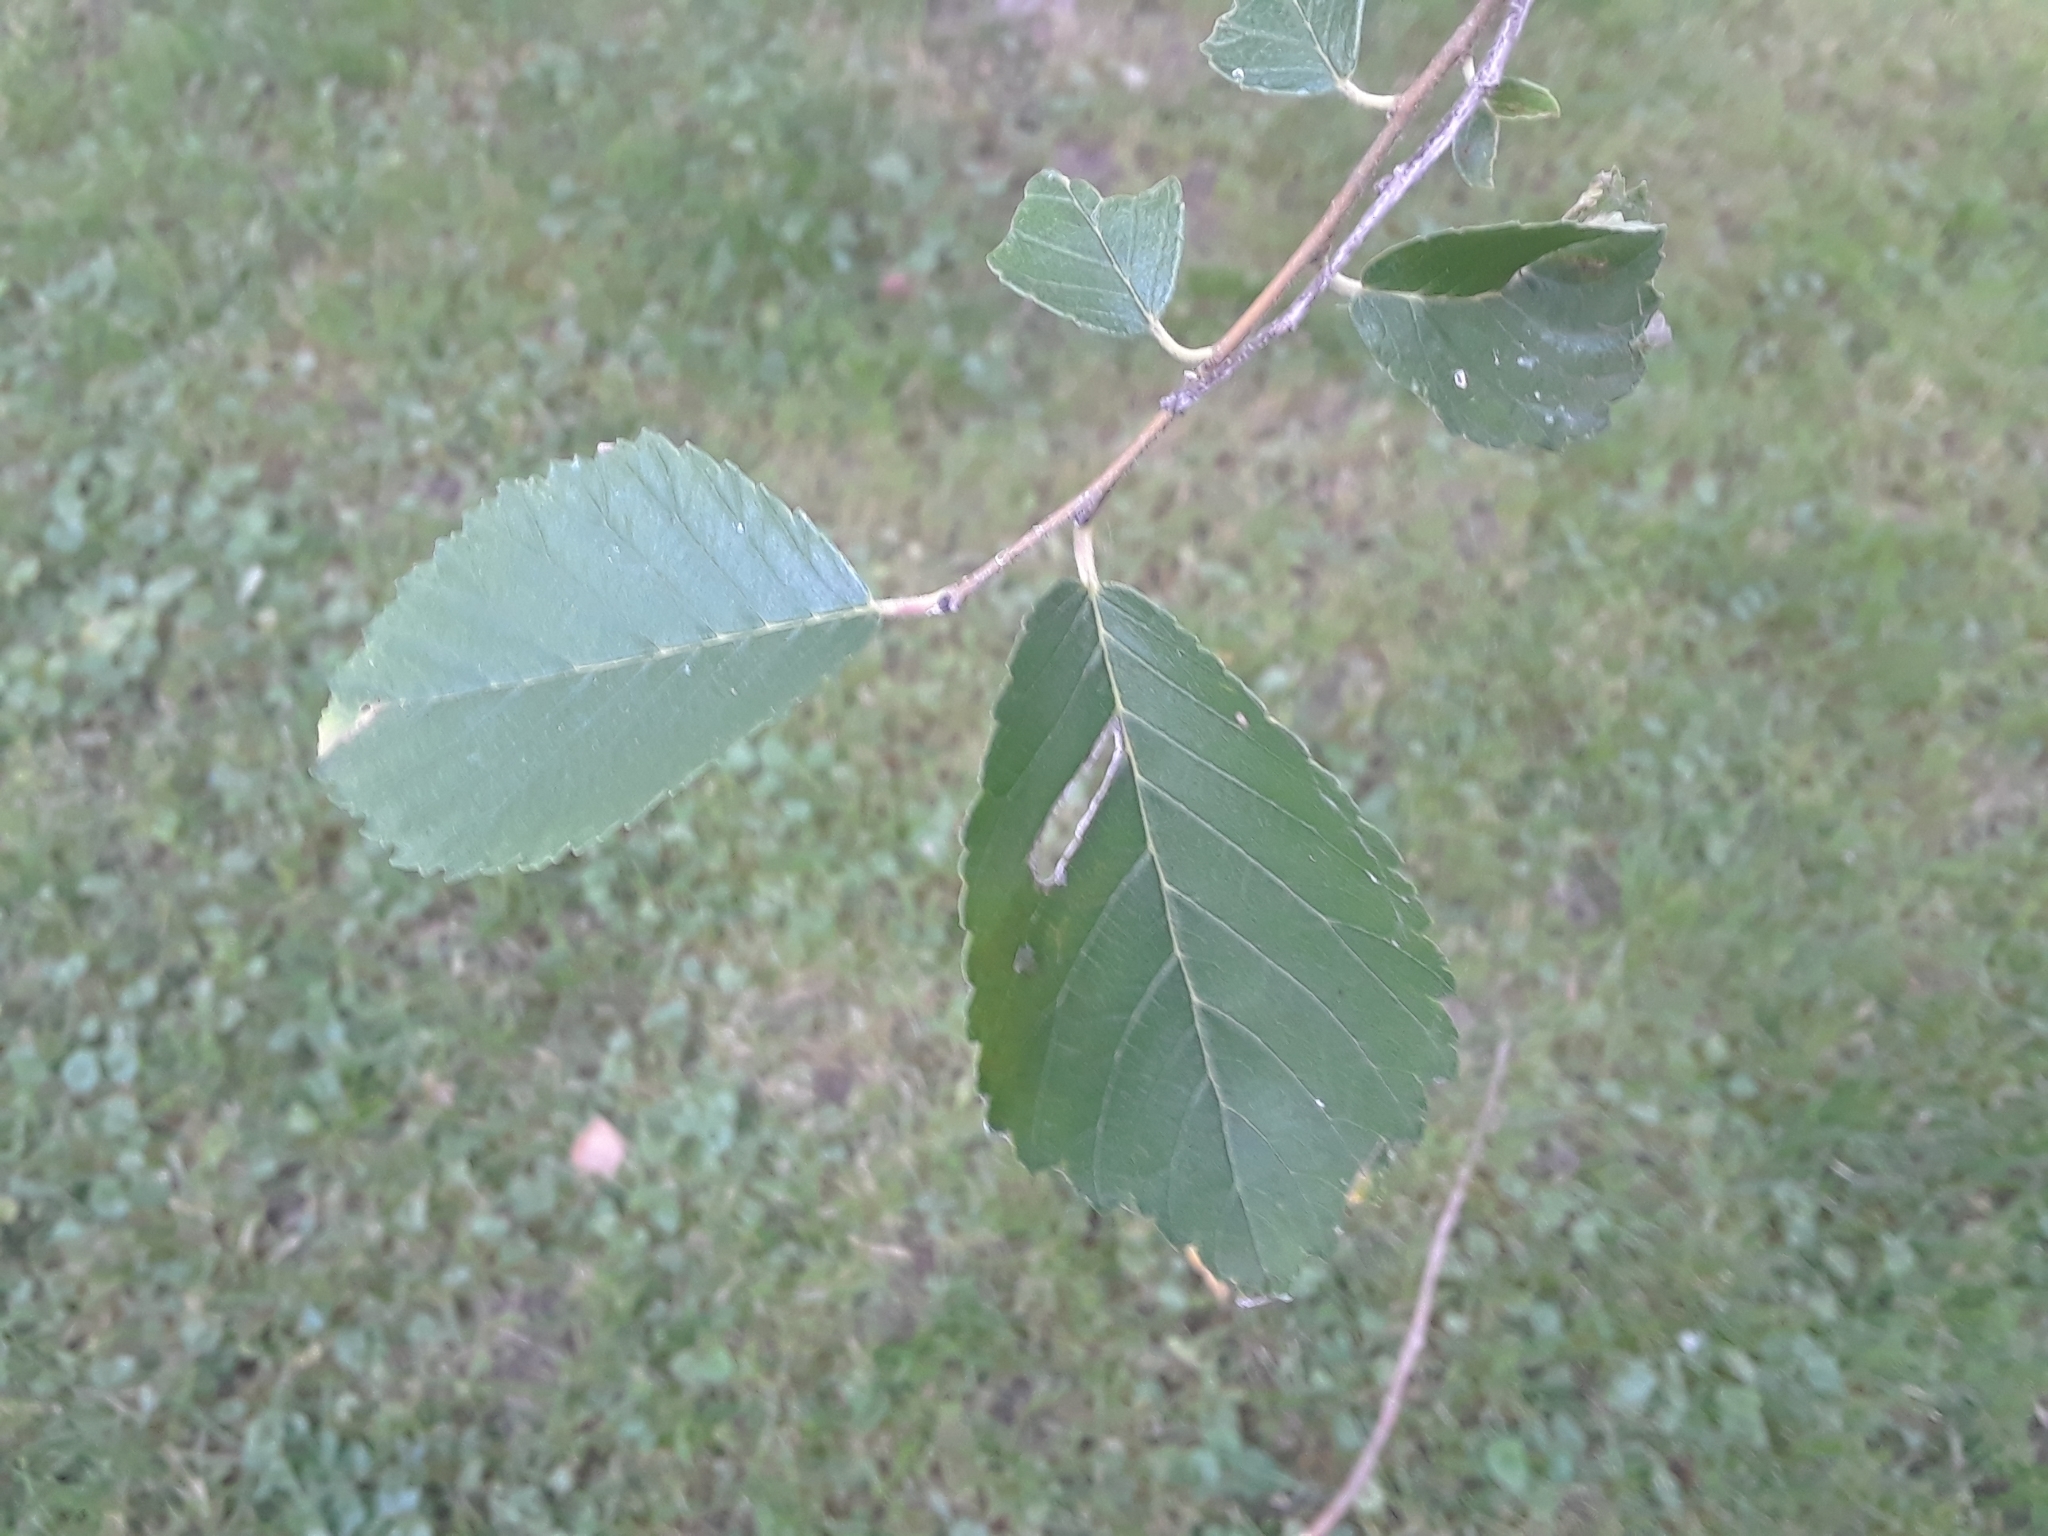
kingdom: Plantae
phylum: Tracheophyta
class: Magnoliopsida
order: Rosales
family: Ulmaceae
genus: Ulmus
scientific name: Ulmus pumila
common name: Siberian elm
